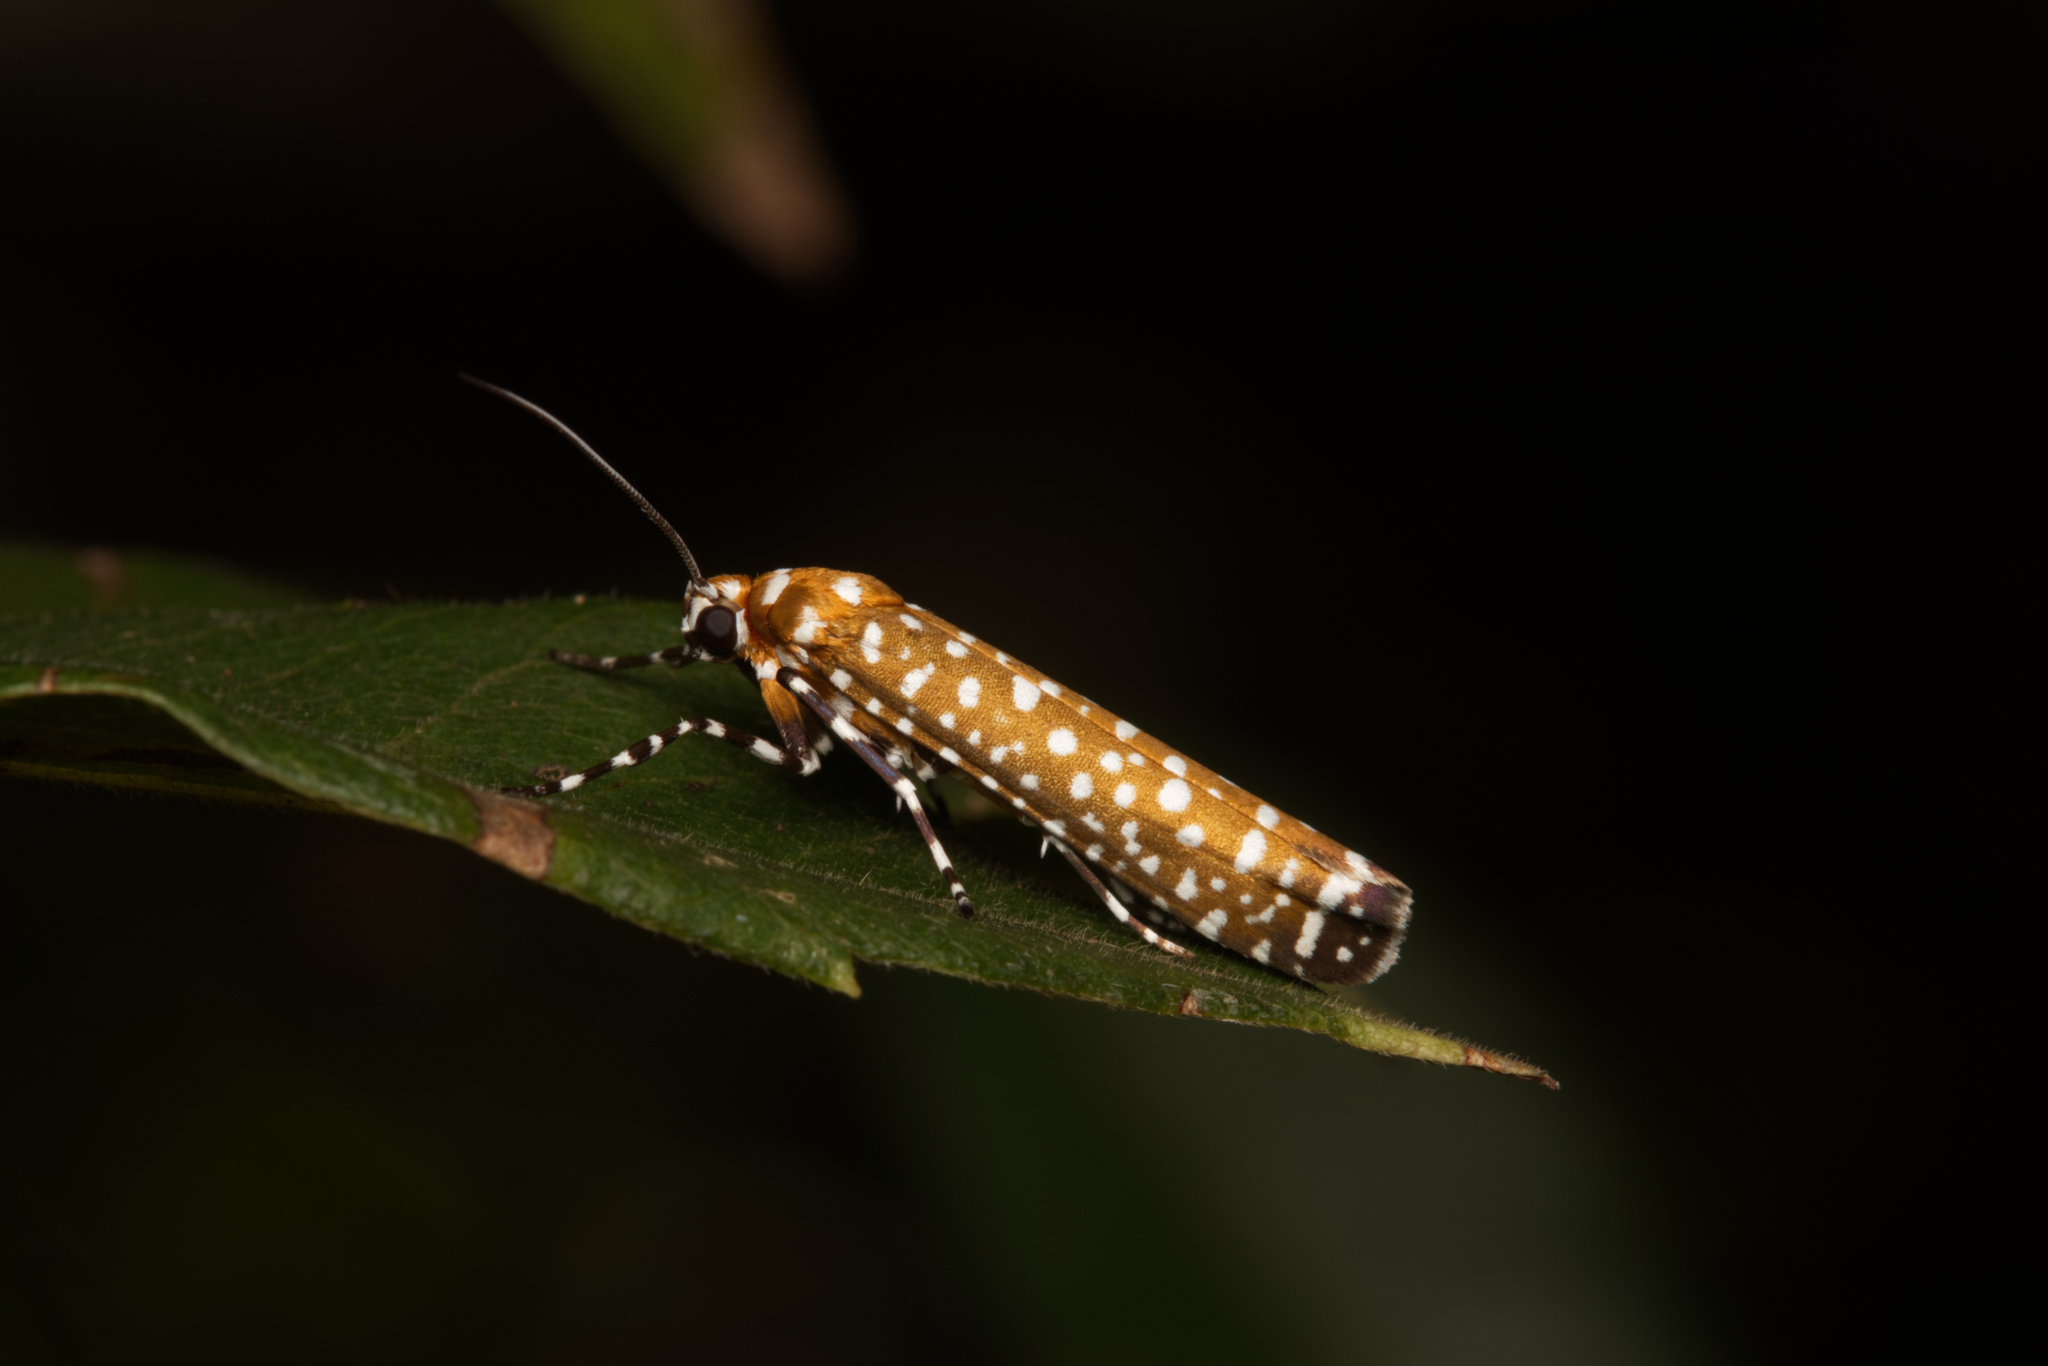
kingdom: Animalia
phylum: Arthropoda
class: Insecta
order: Lepidoptera
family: Attevidae
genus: Atteva
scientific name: Atteva albiguttata
